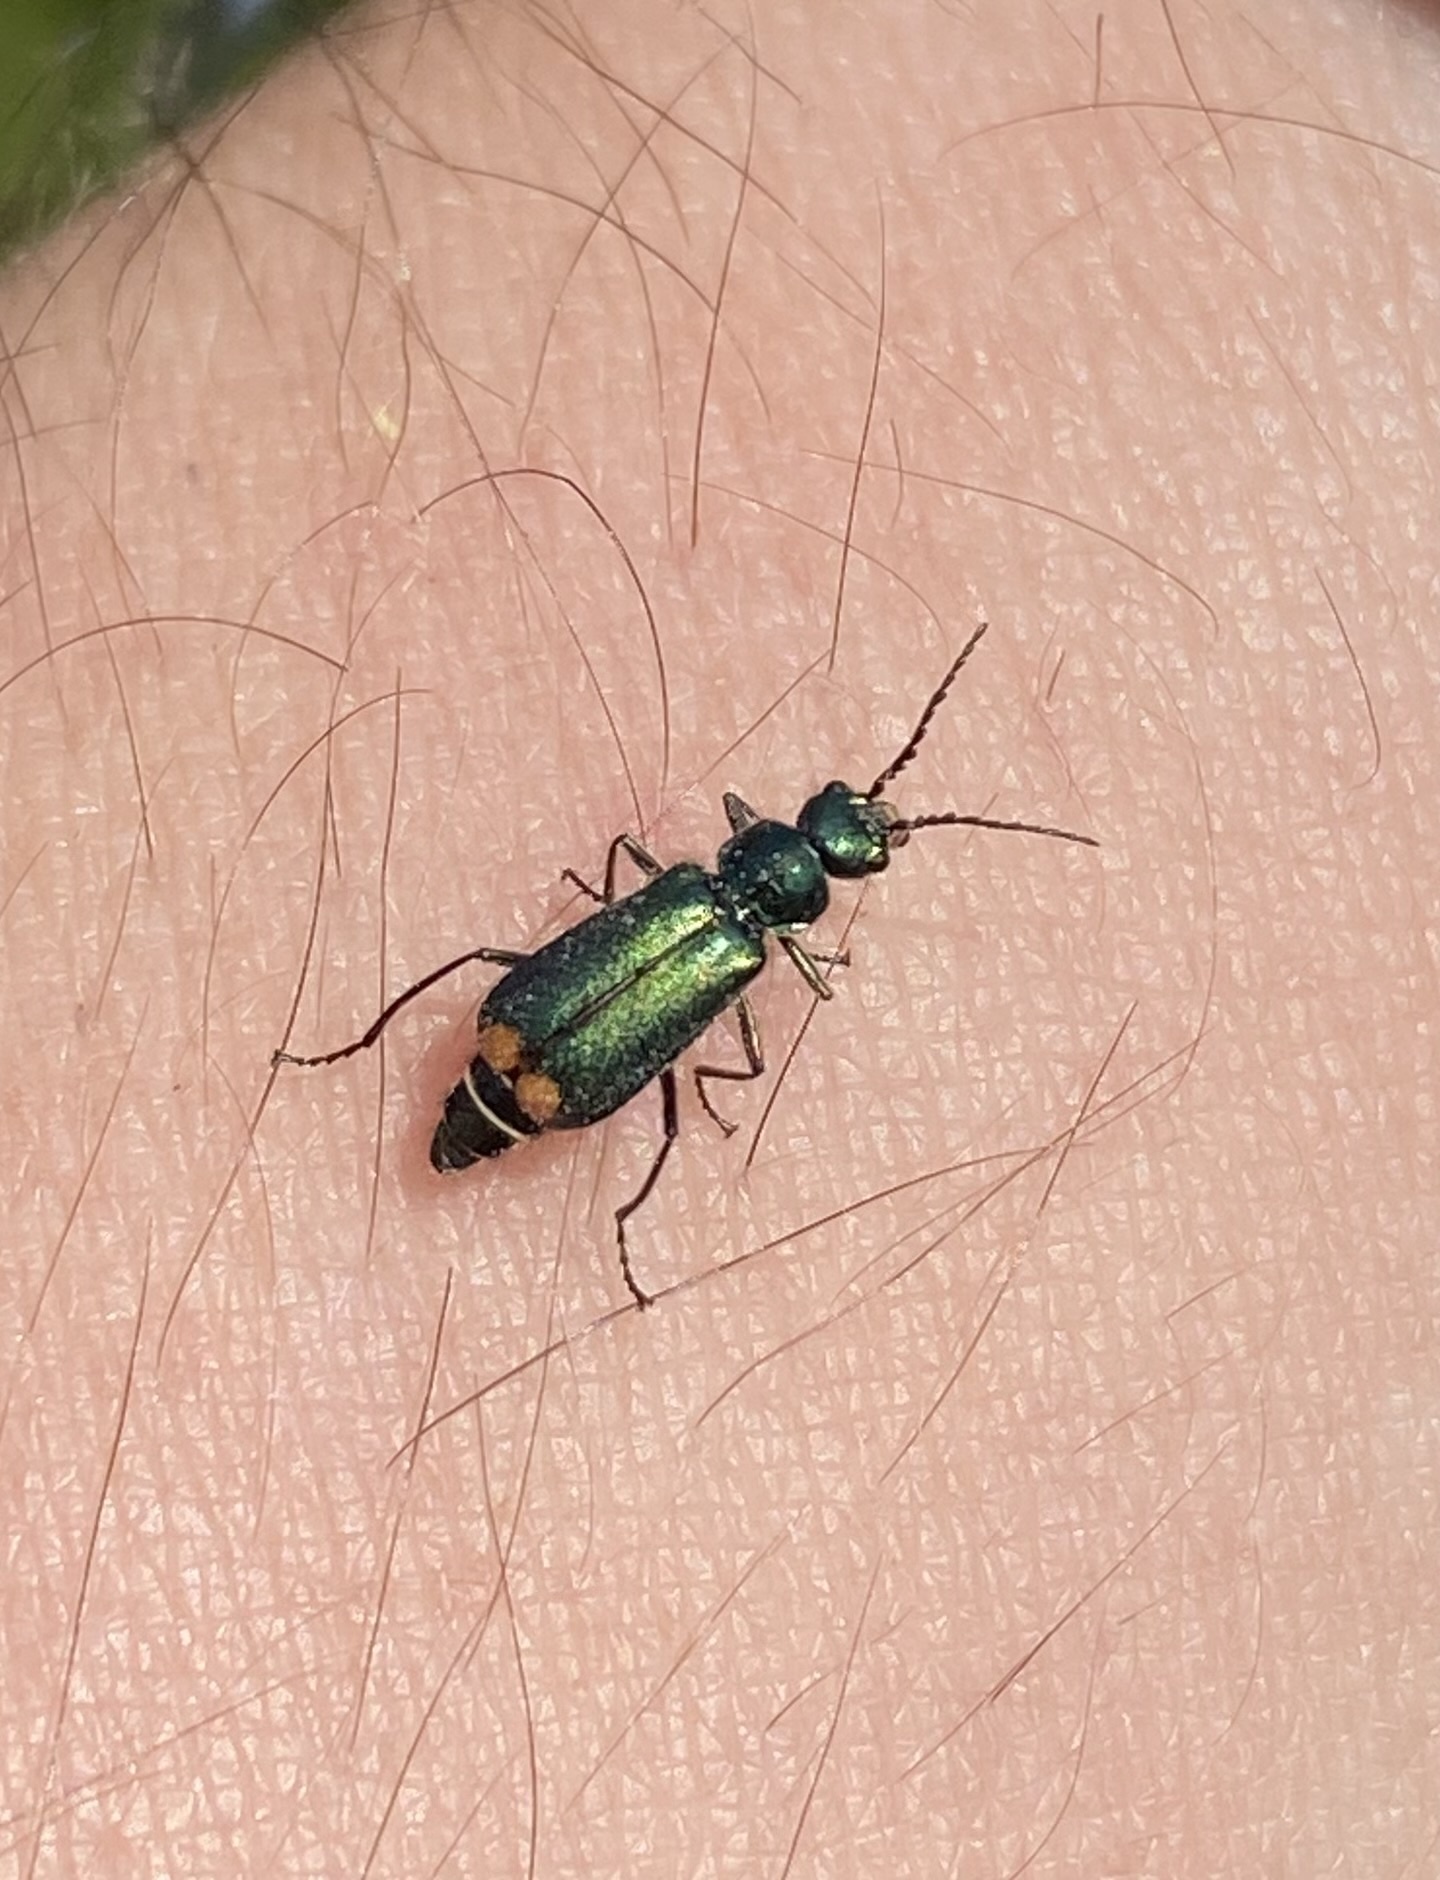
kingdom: Animalia
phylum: Arthropoda
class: Insecta
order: Coleoptera
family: Melyridae
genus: Malachius
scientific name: Malachius bipustulatus
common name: Malachite beetle
